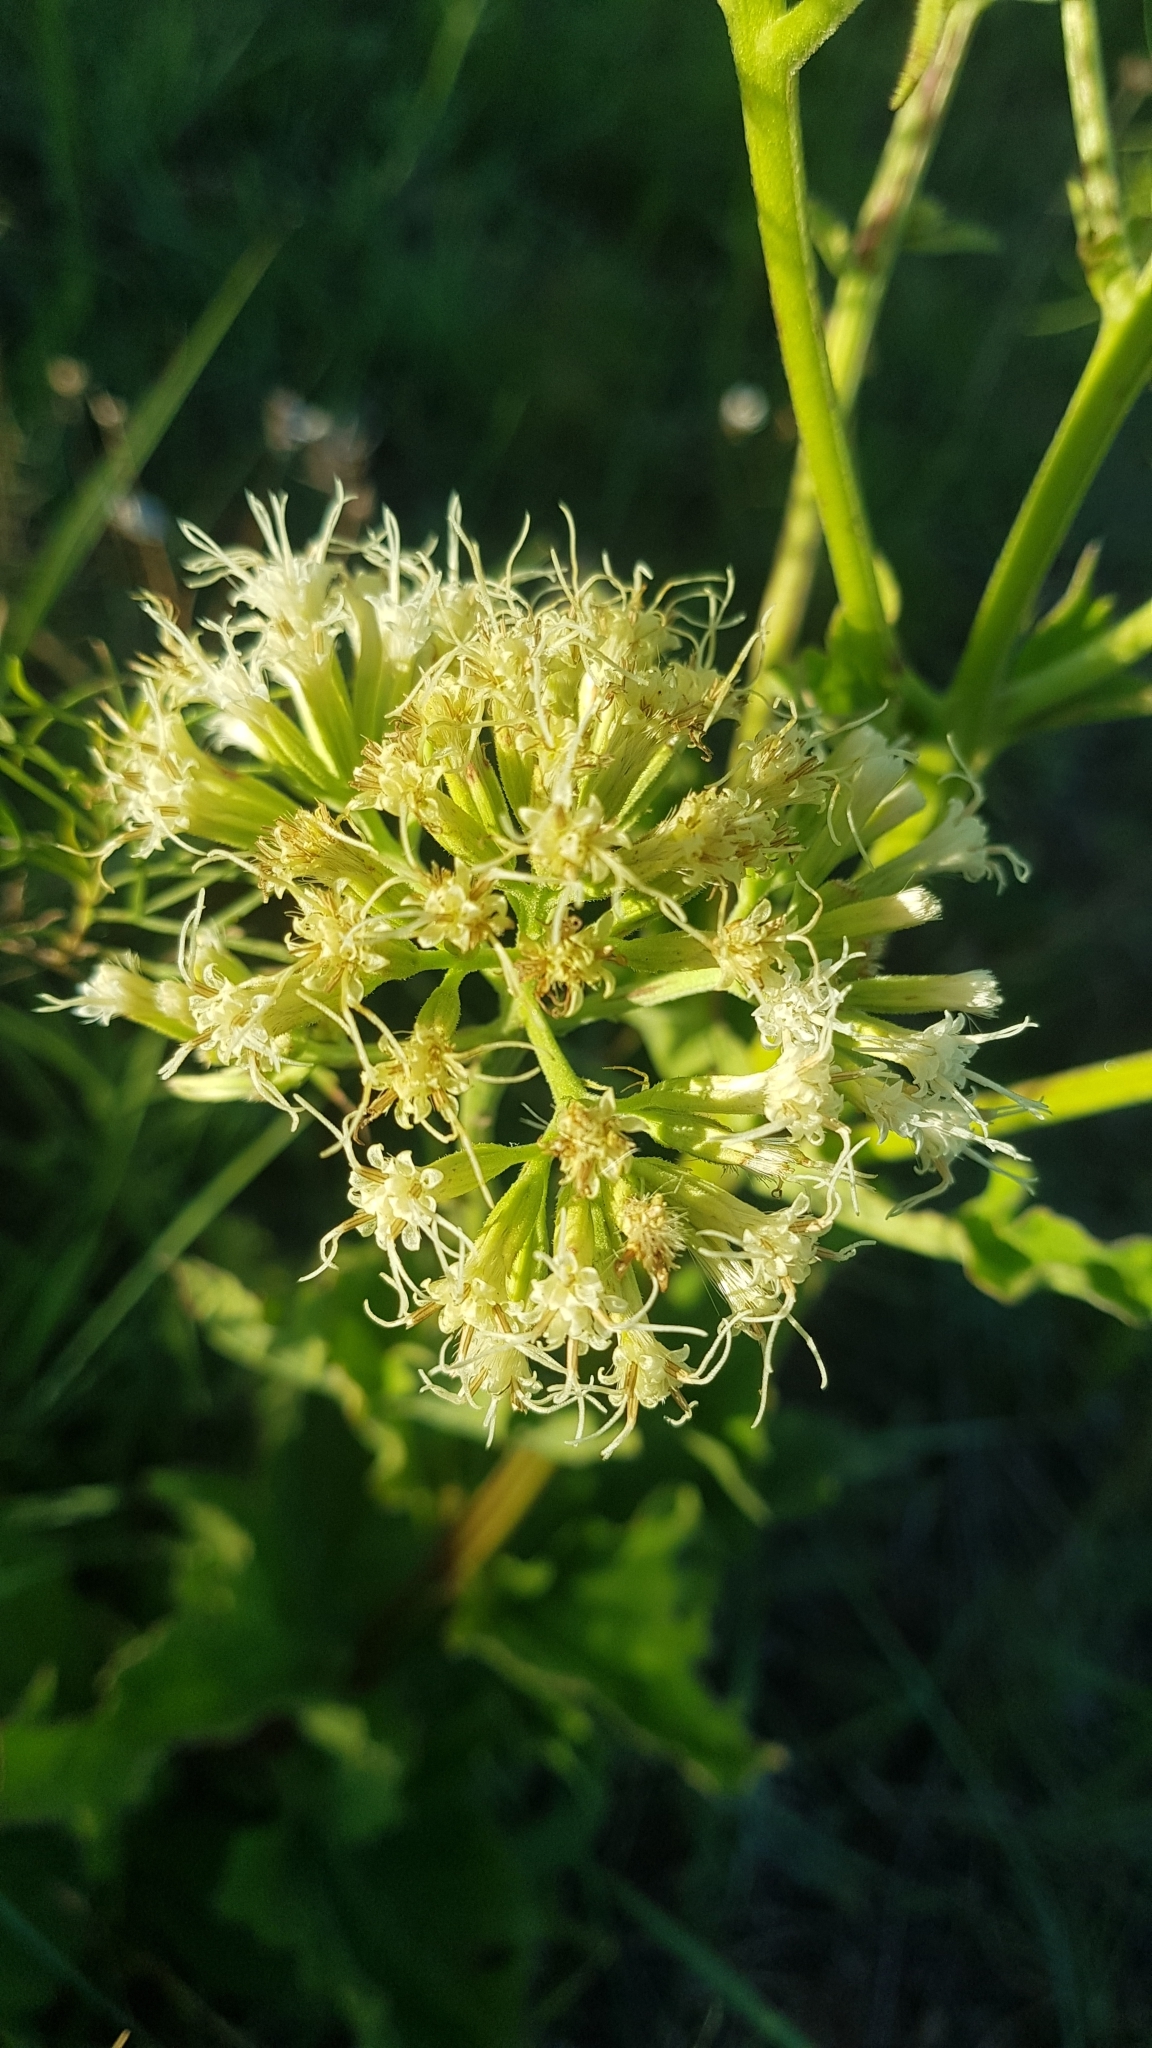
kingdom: Plantae
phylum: Tracheophyta
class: Magnoliopsida
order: Asterales
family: Asteraceae
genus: Mikania
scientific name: Mikania thapsoides
